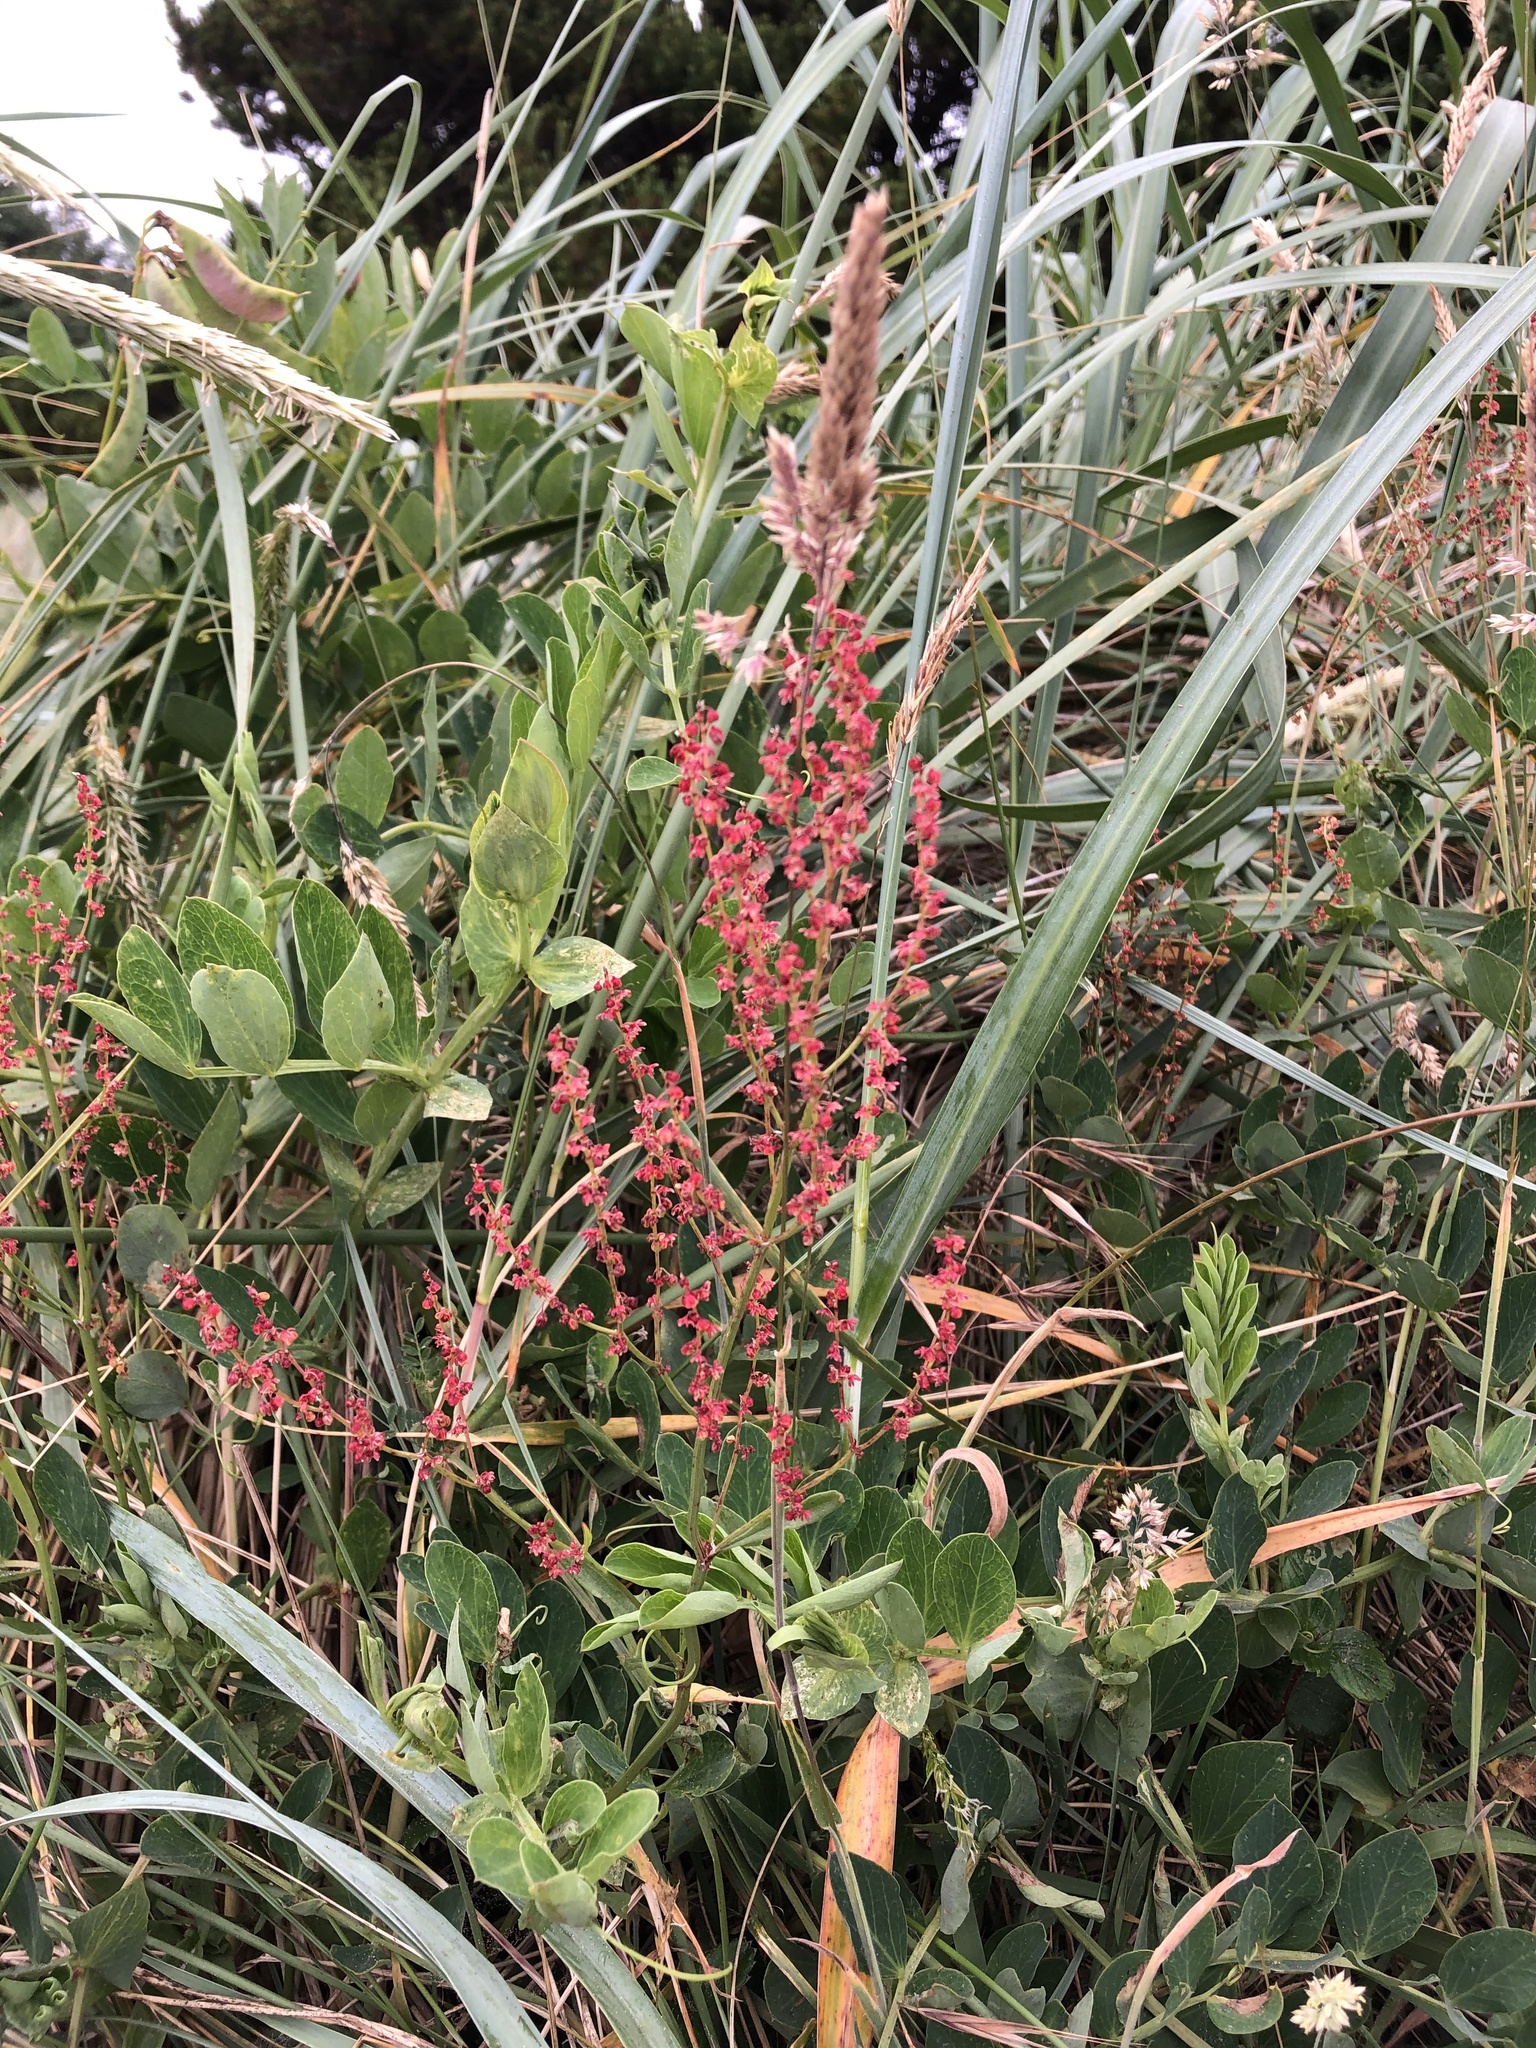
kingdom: Plantae
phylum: Tracheophyta
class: Magnoliopsida
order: Caryophyllales
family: Polygonaceae
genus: Rumex
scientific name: Rumex acetosella
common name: Common sheep sorrel
